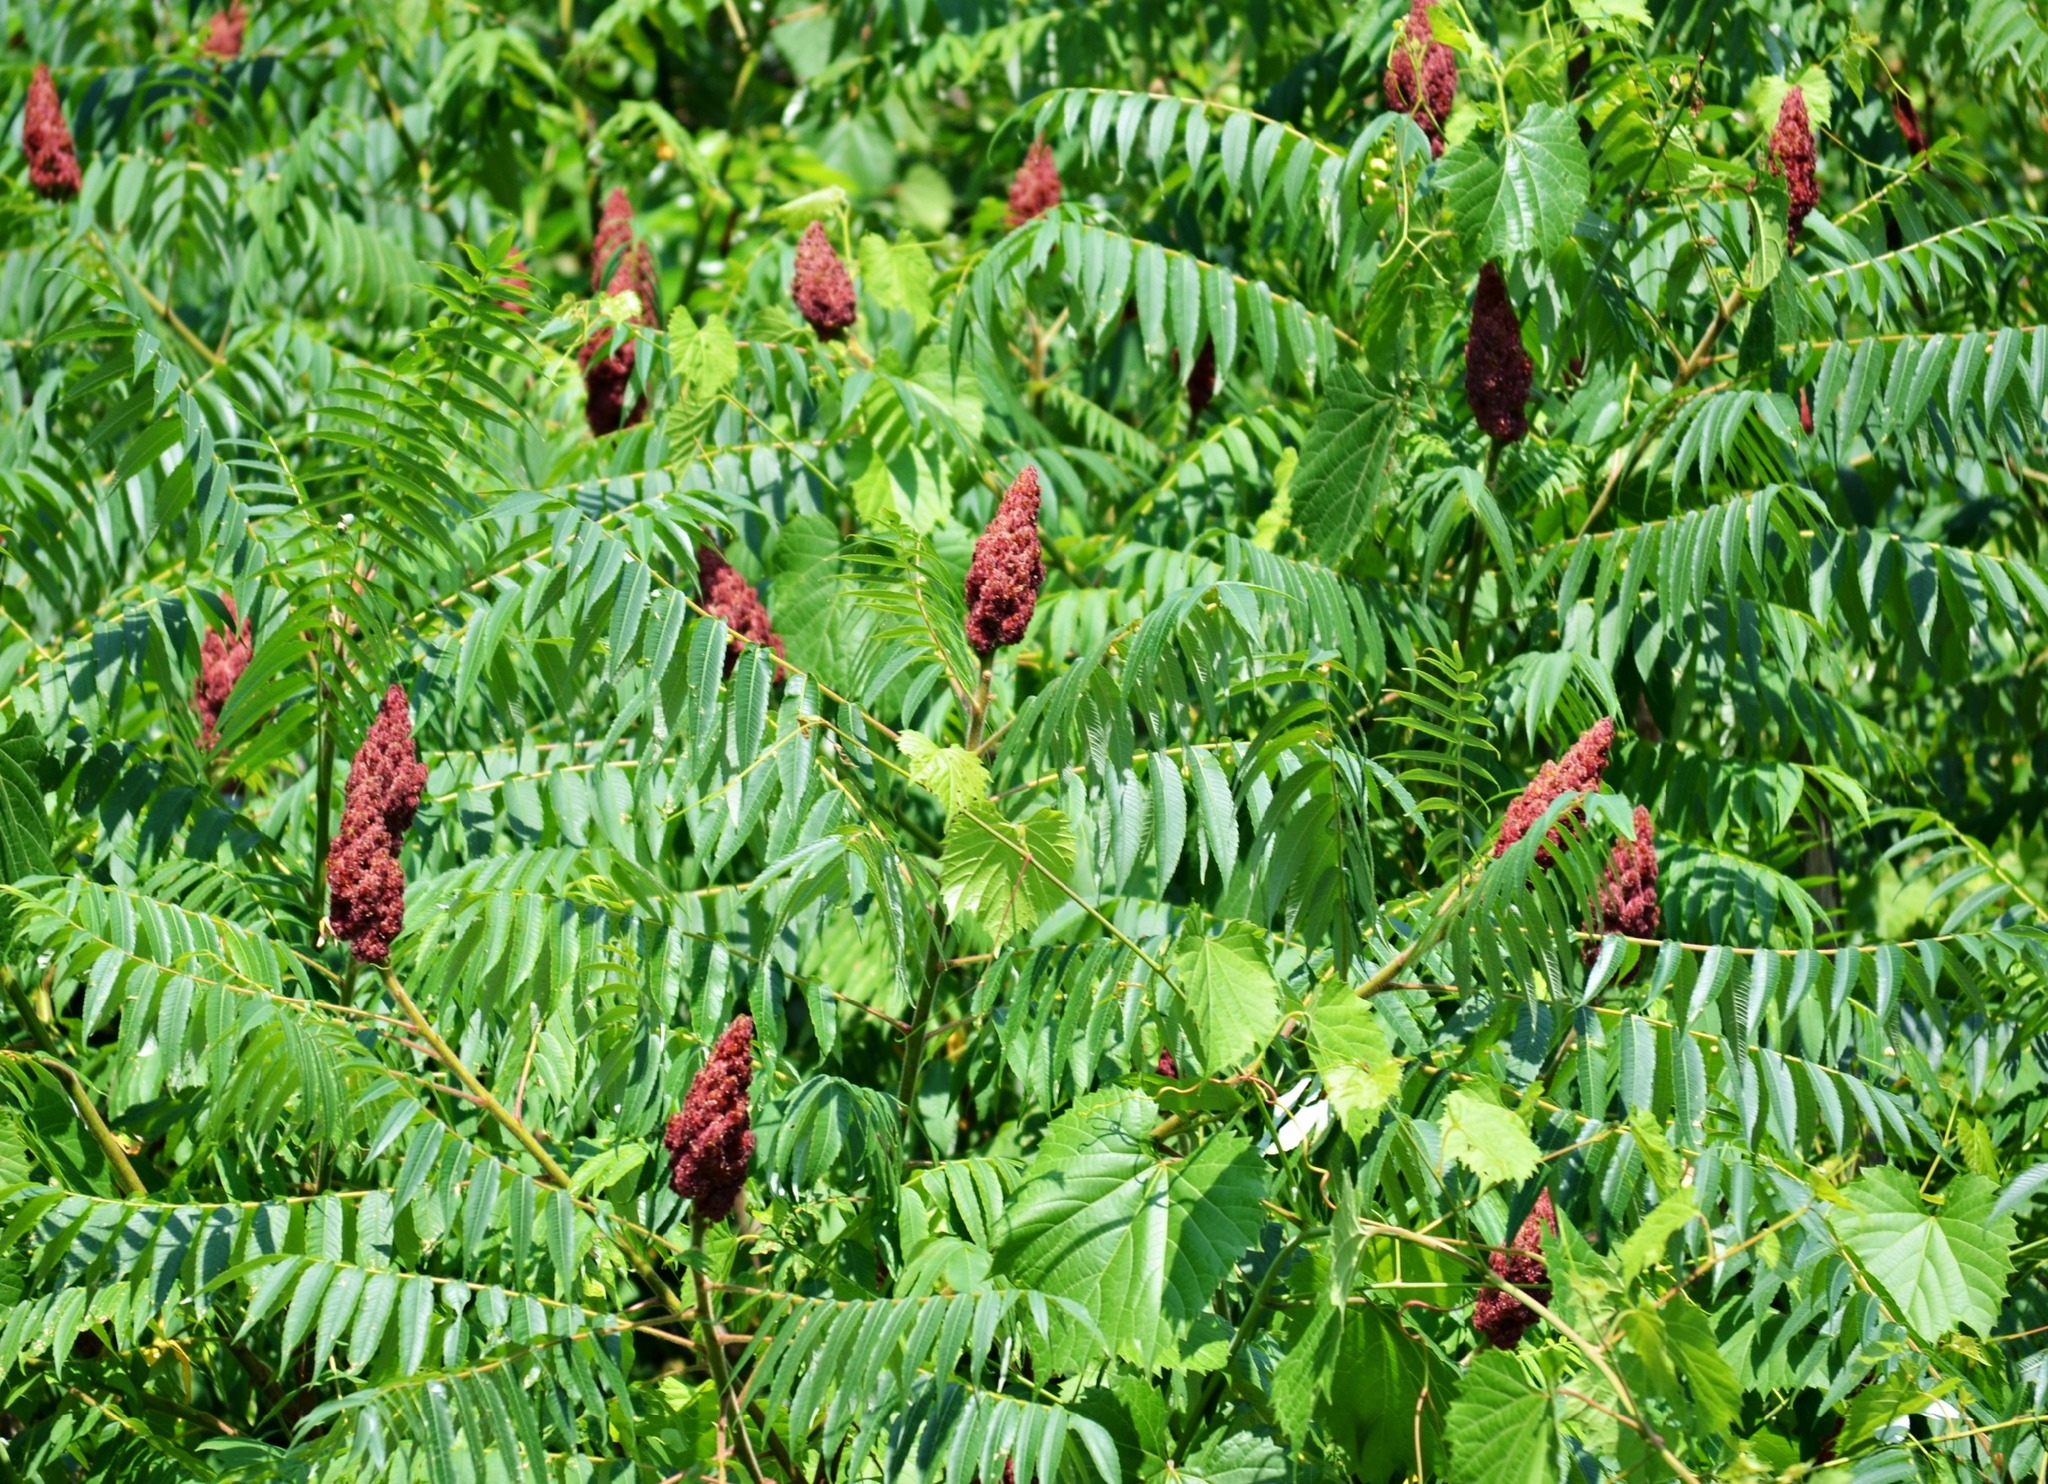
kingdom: Plantae
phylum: Tracheophyta
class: Magnoliopsida
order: Sapindales
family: Anacardiaceae
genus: Rhus
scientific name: Rhus typhina
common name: Staghorn sumac
